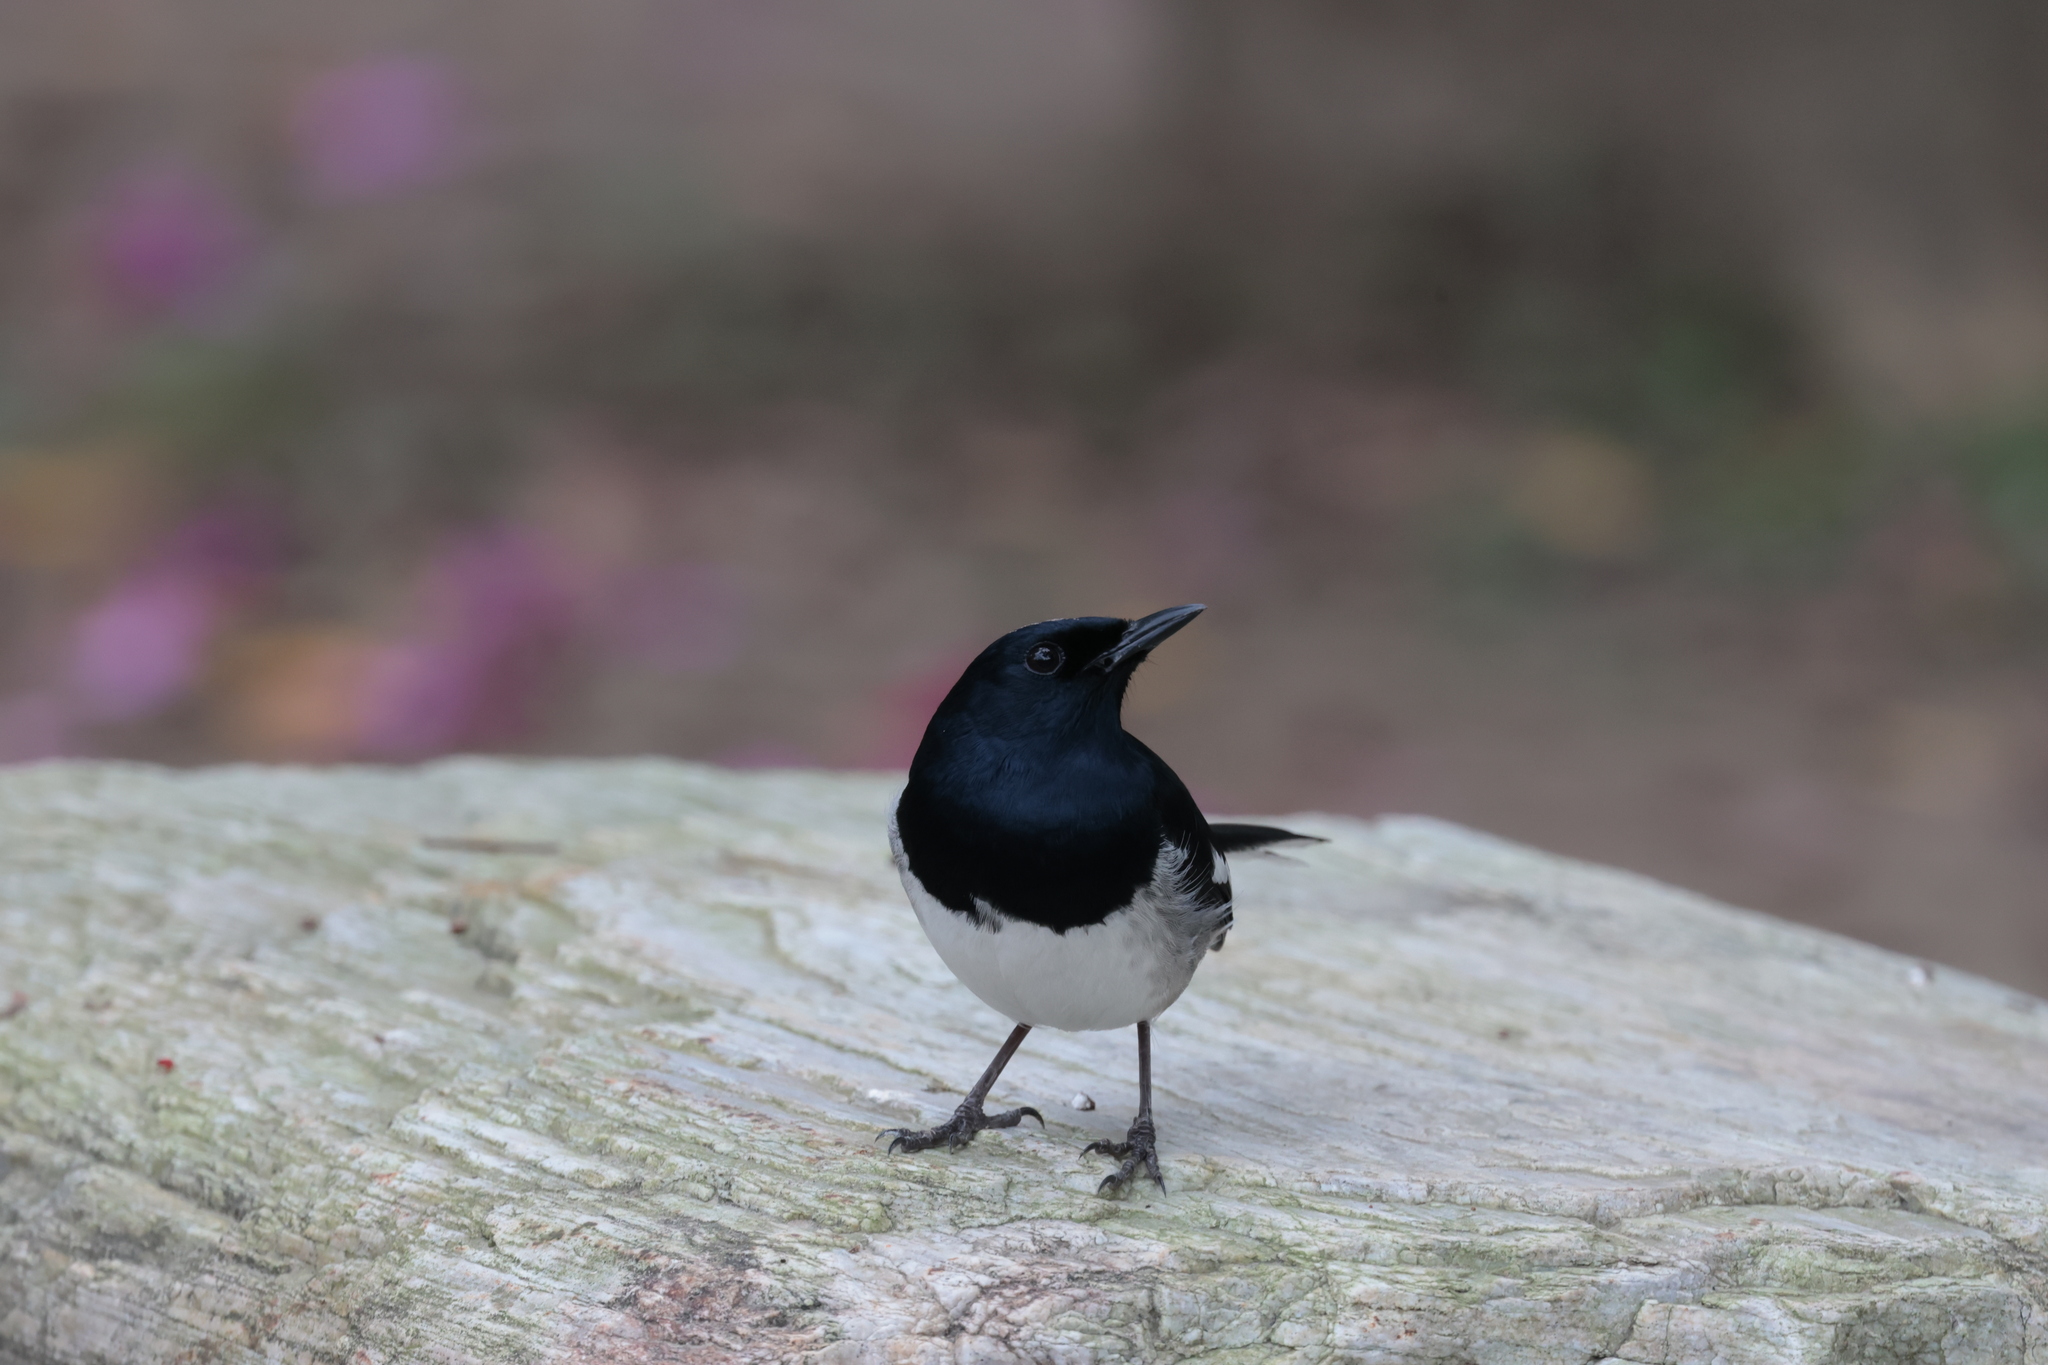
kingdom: Animalia
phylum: Chordata
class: Aves
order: Passeriformes
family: Muscicapidae
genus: Copsychus
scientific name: Copsychus saularis
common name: Oriental magpie-robin
